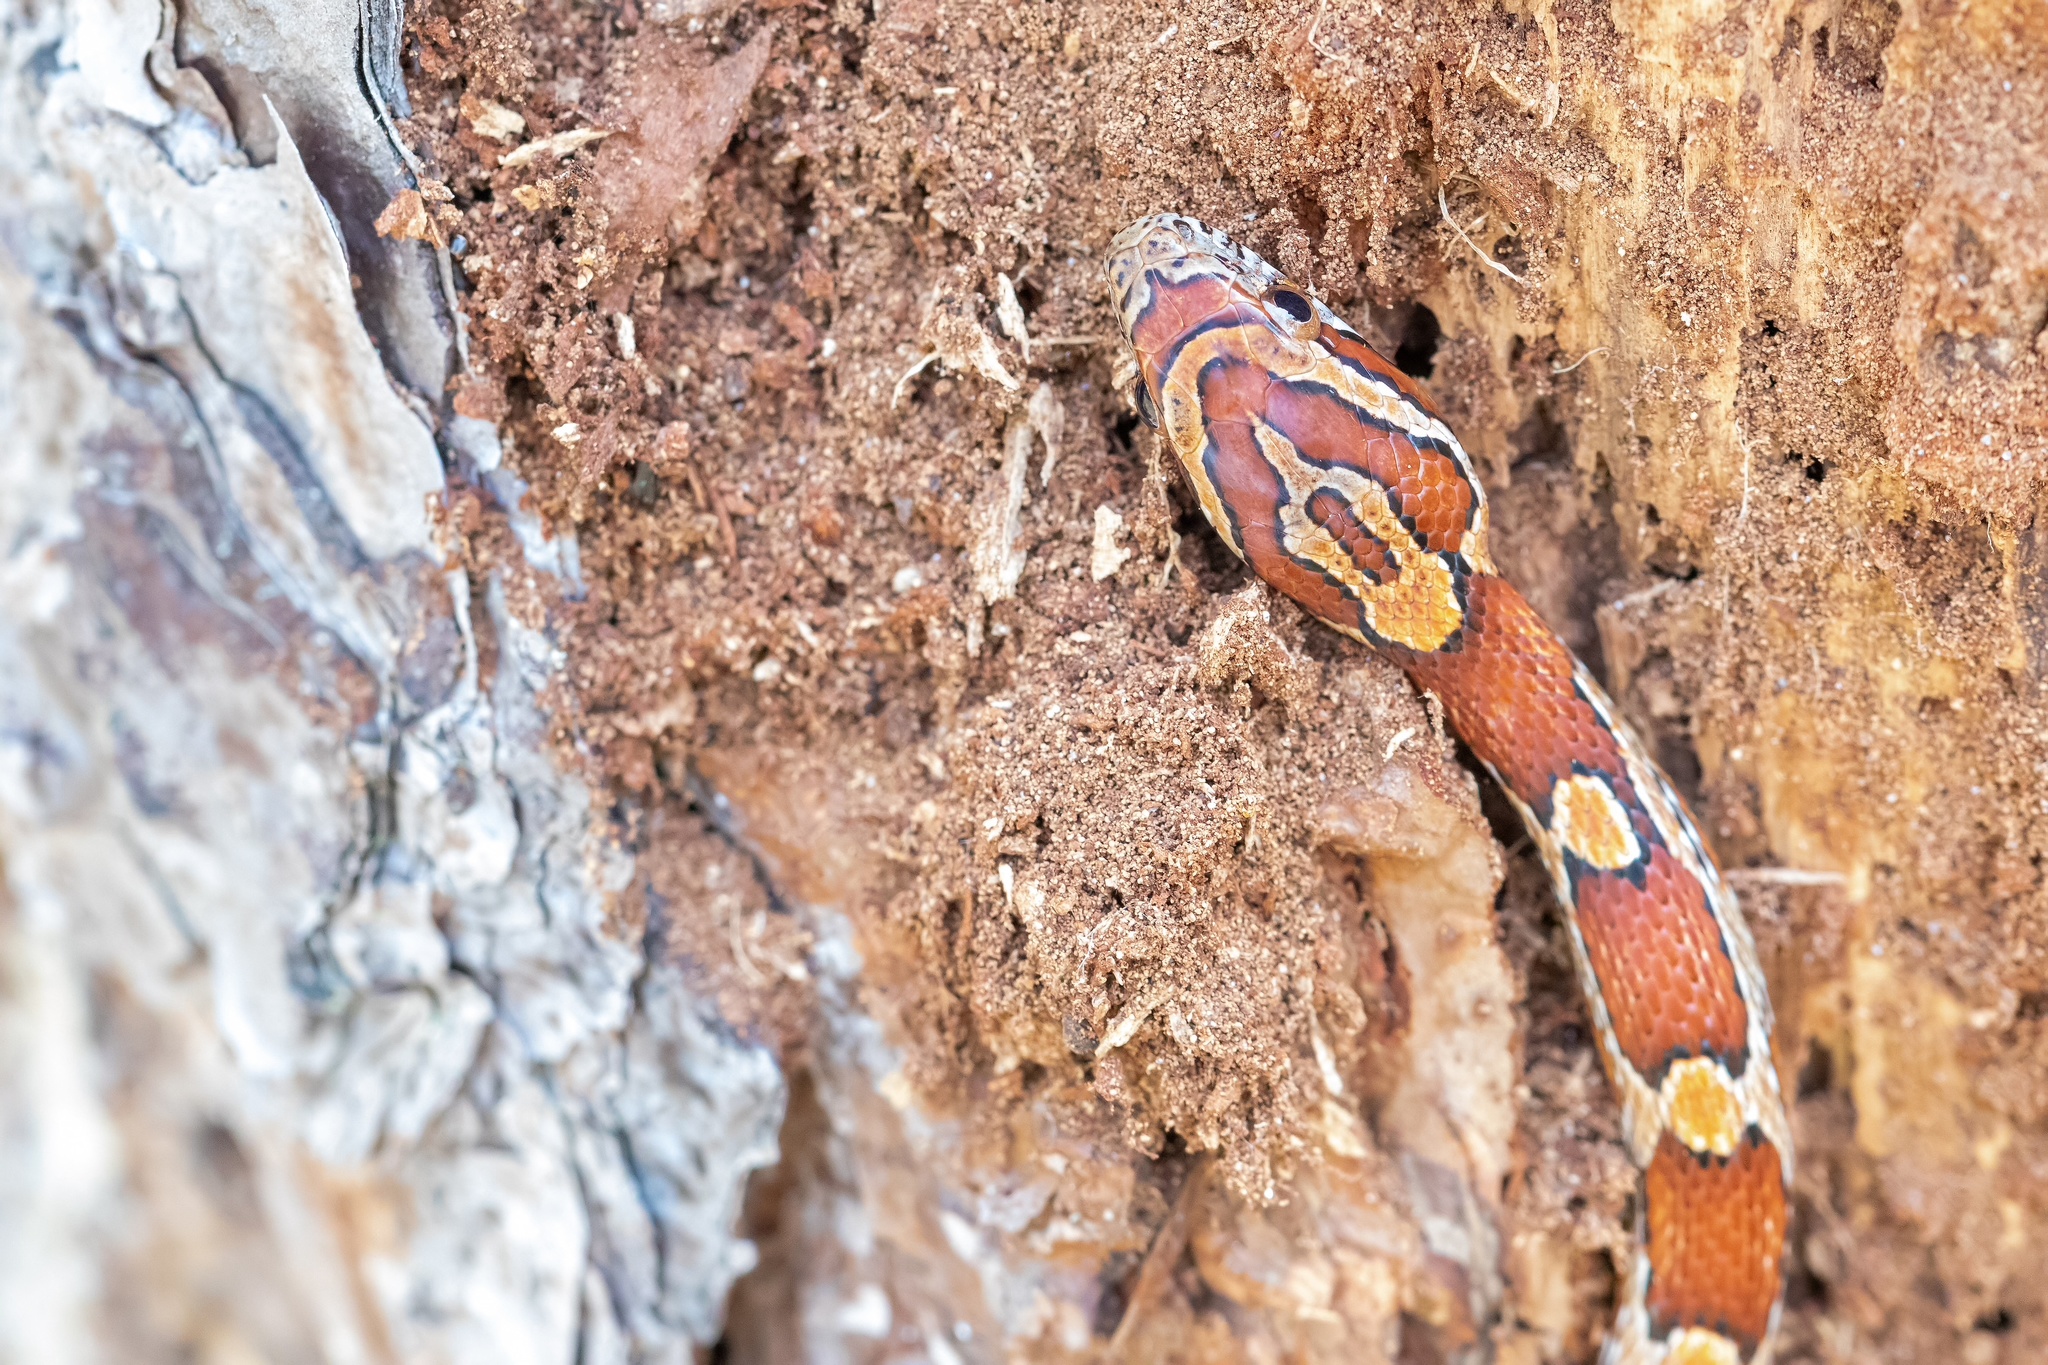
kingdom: Animalia
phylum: Chordata
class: Squamata
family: Colubridae
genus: Pantherophis
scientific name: Pantherophis guttatus
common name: Red cornsnake
